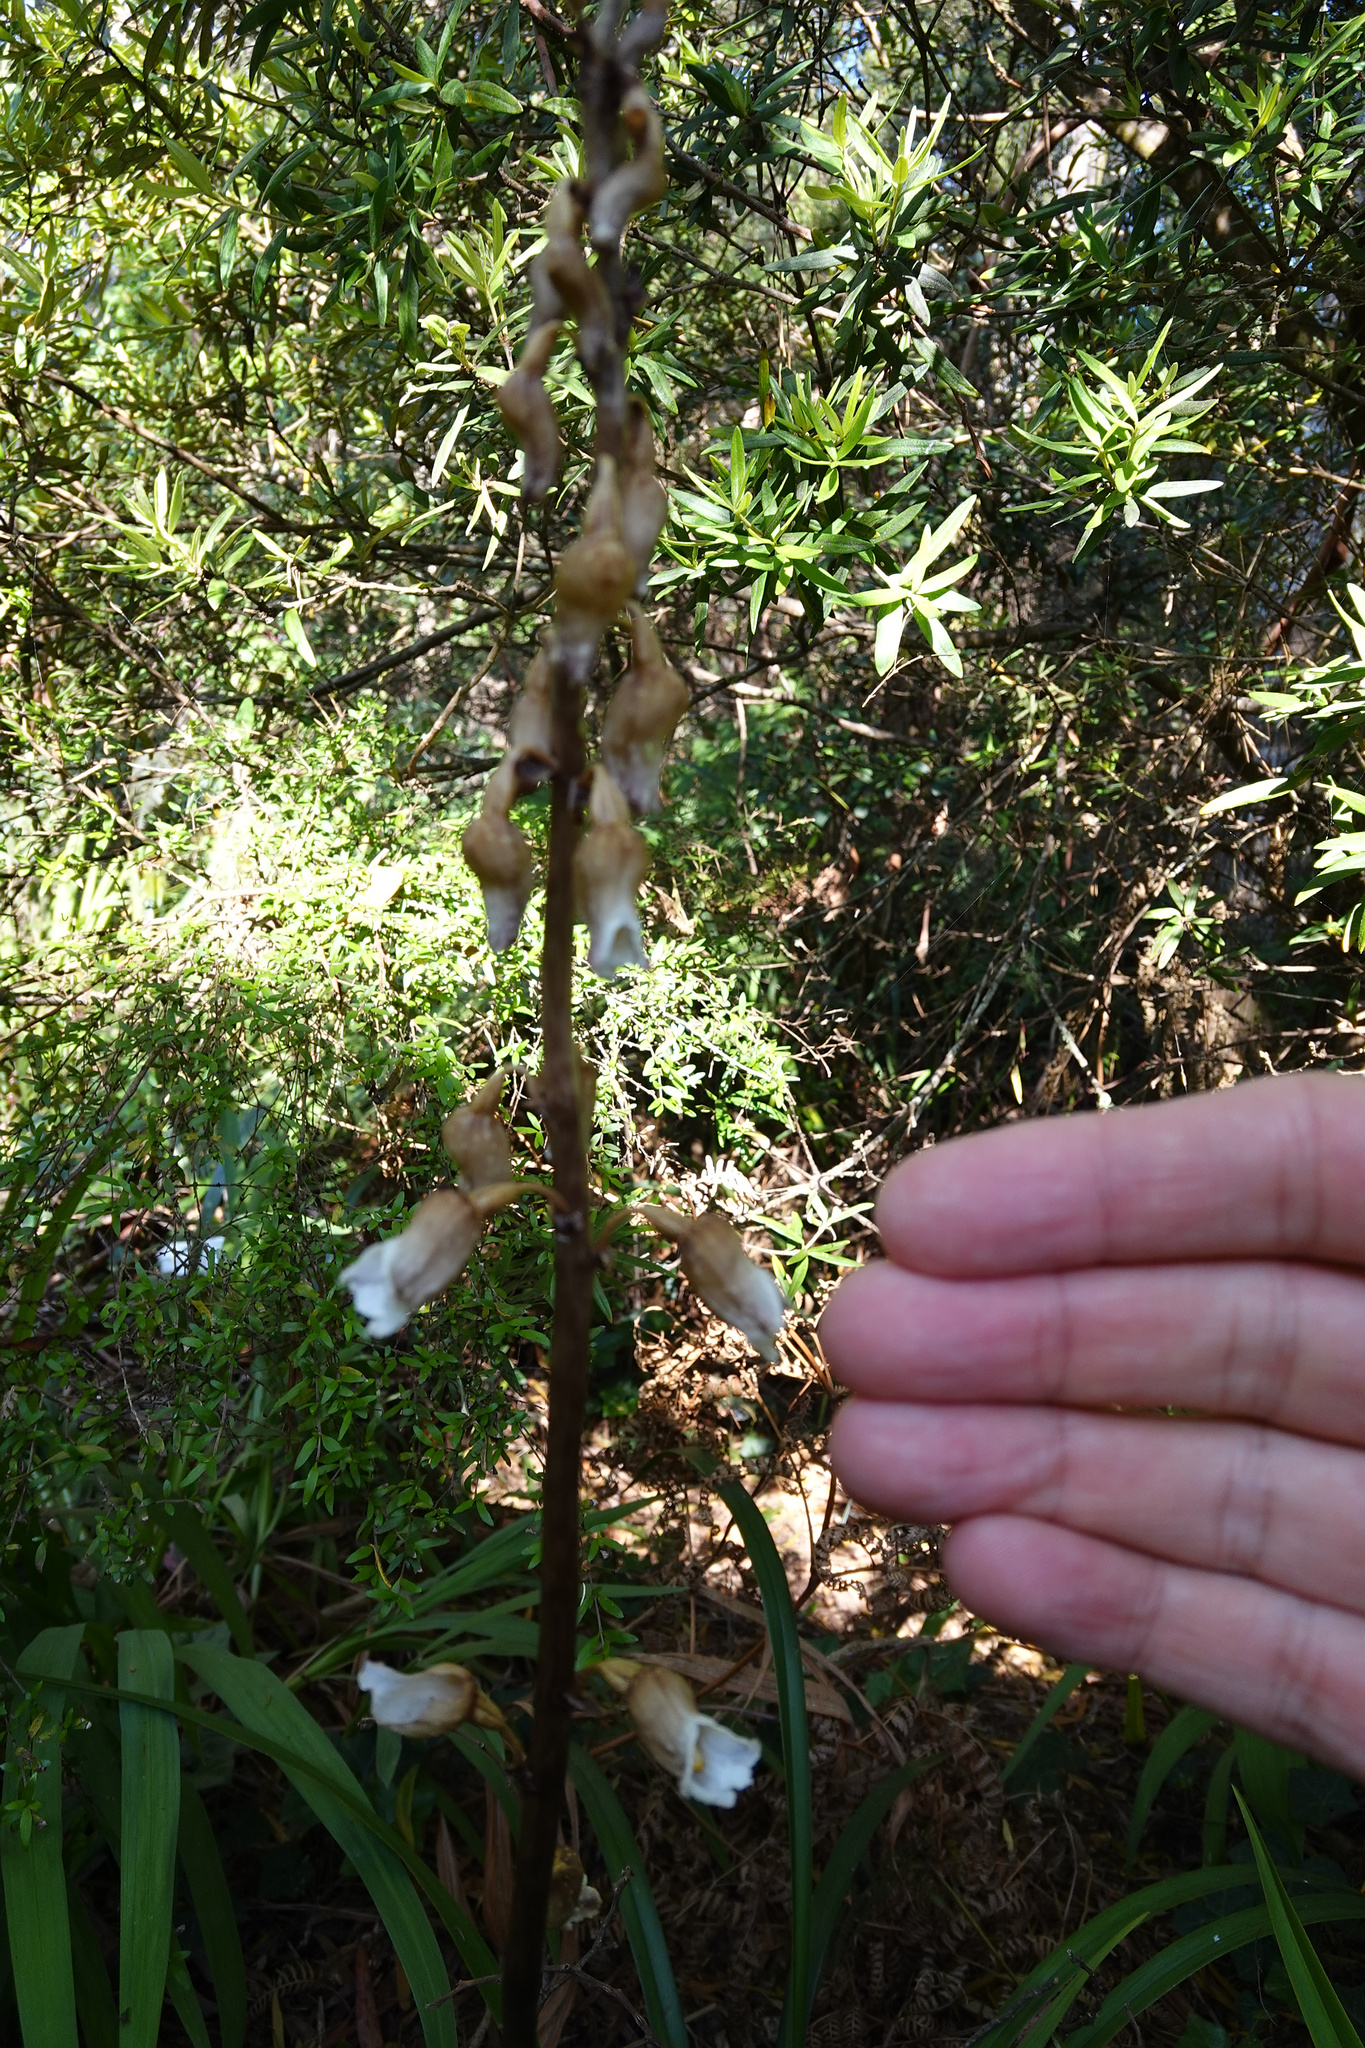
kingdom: Plantae
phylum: Tracheophyta
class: Liliopsida
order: Asparagales
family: Orchidaceae
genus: Gastrodia
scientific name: Gastrodia procera
